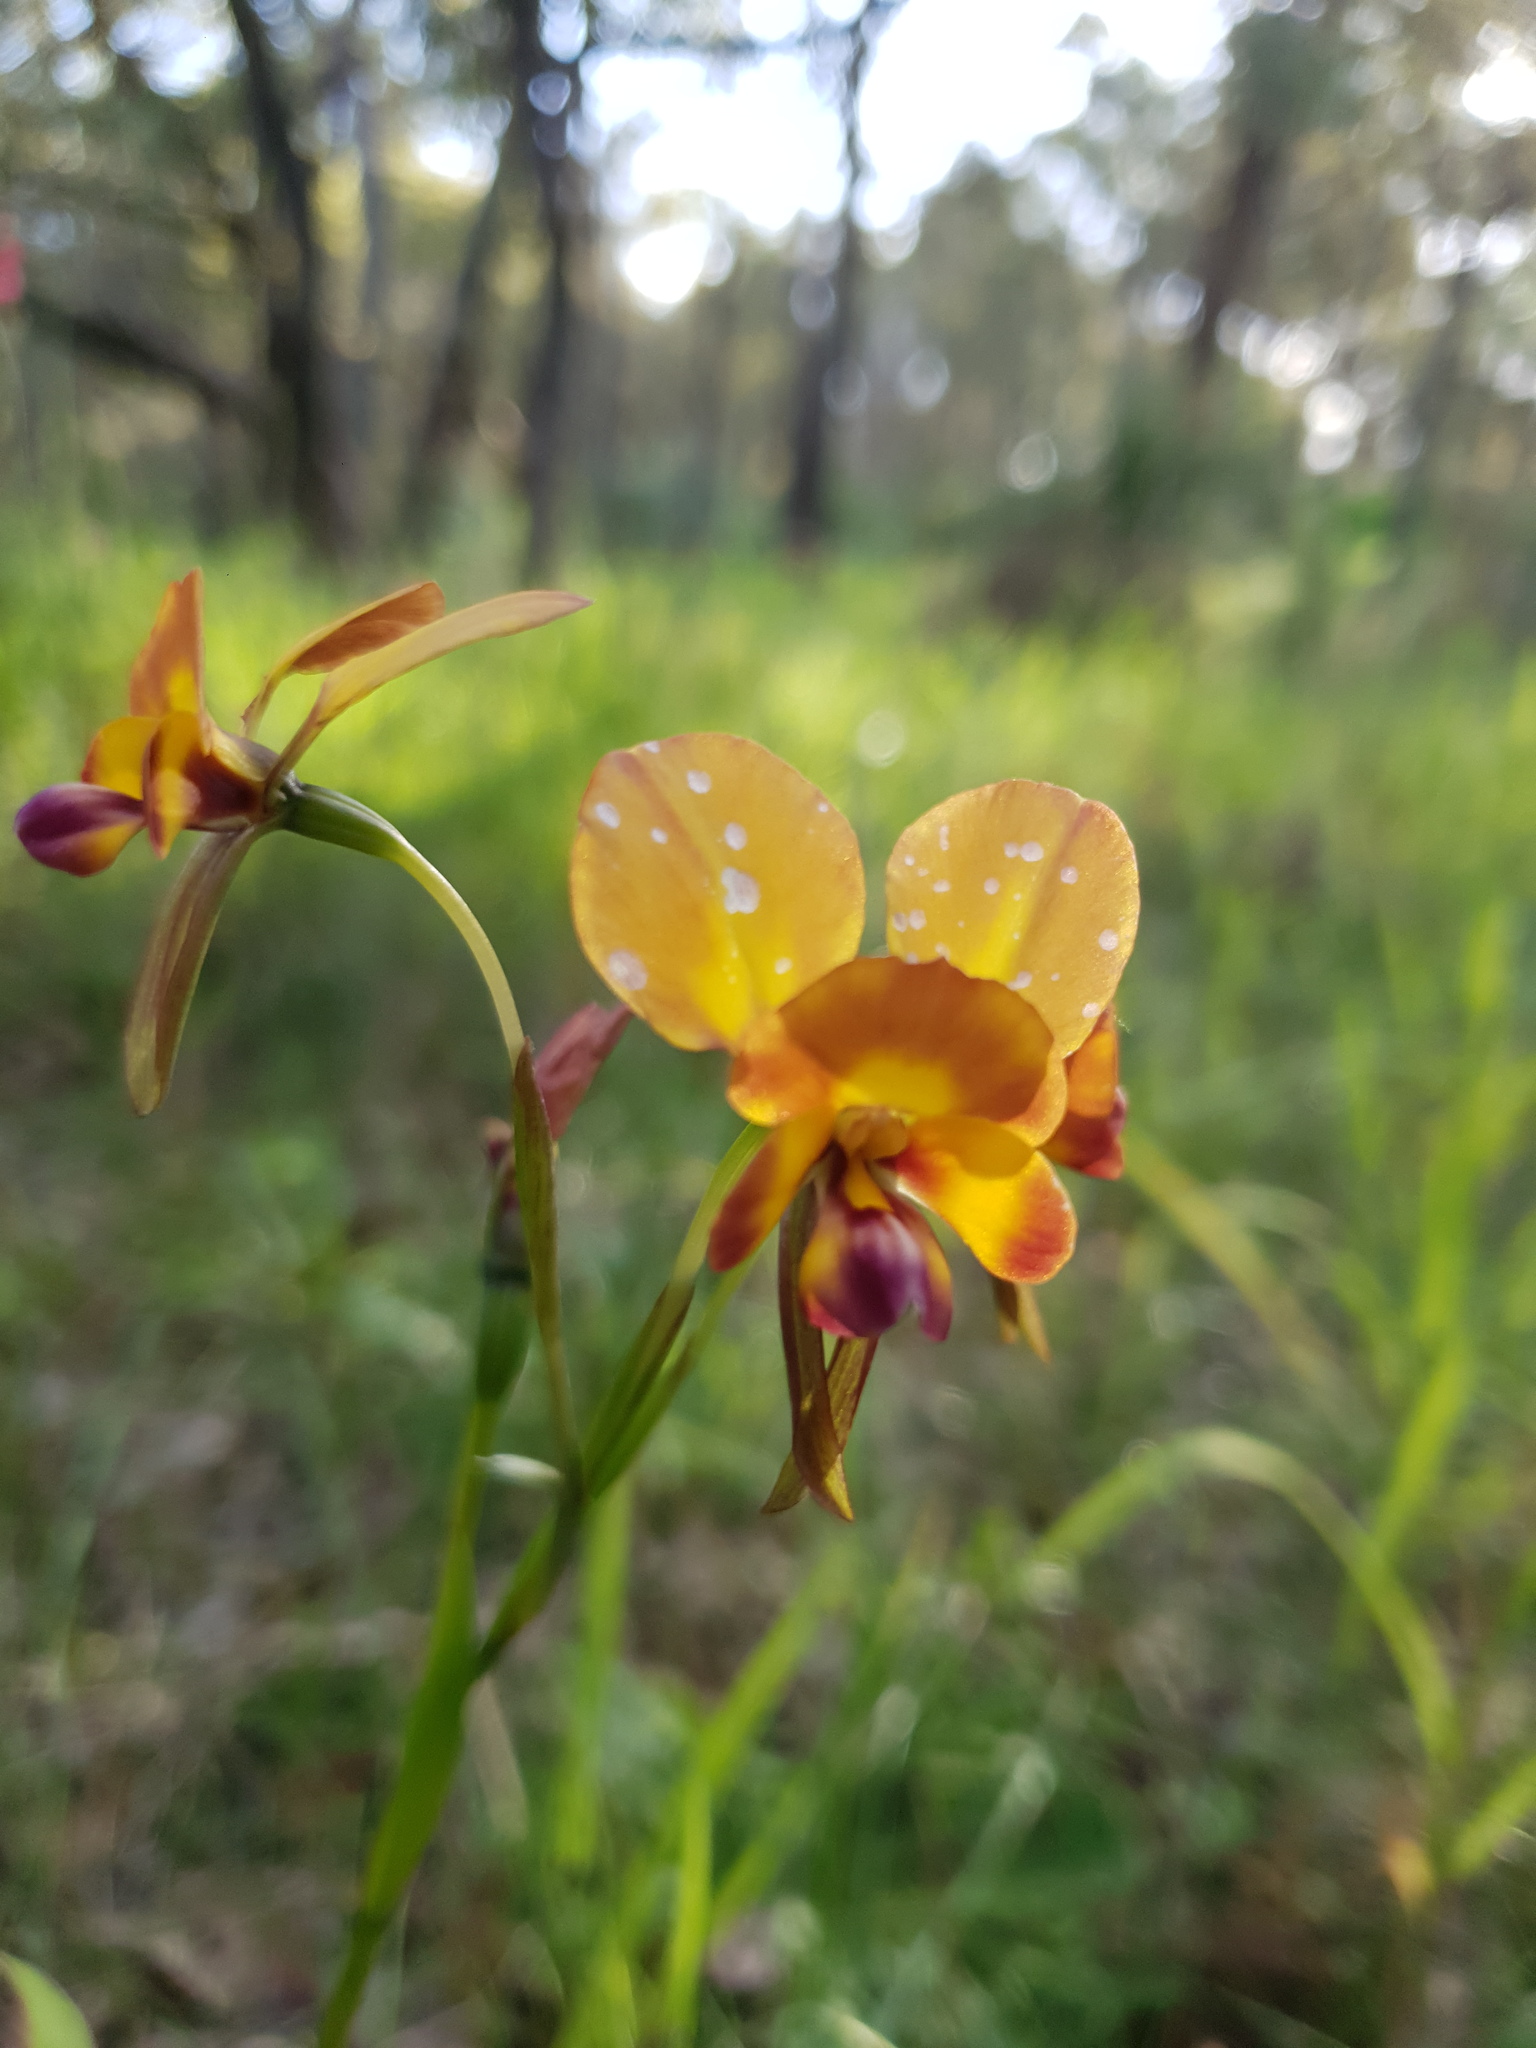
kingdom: Plantae
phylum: Tracheophyta
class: Liliopsida
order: Asparagales
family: Orchidaceae
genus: Diuris
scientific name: Diuris magnifica
